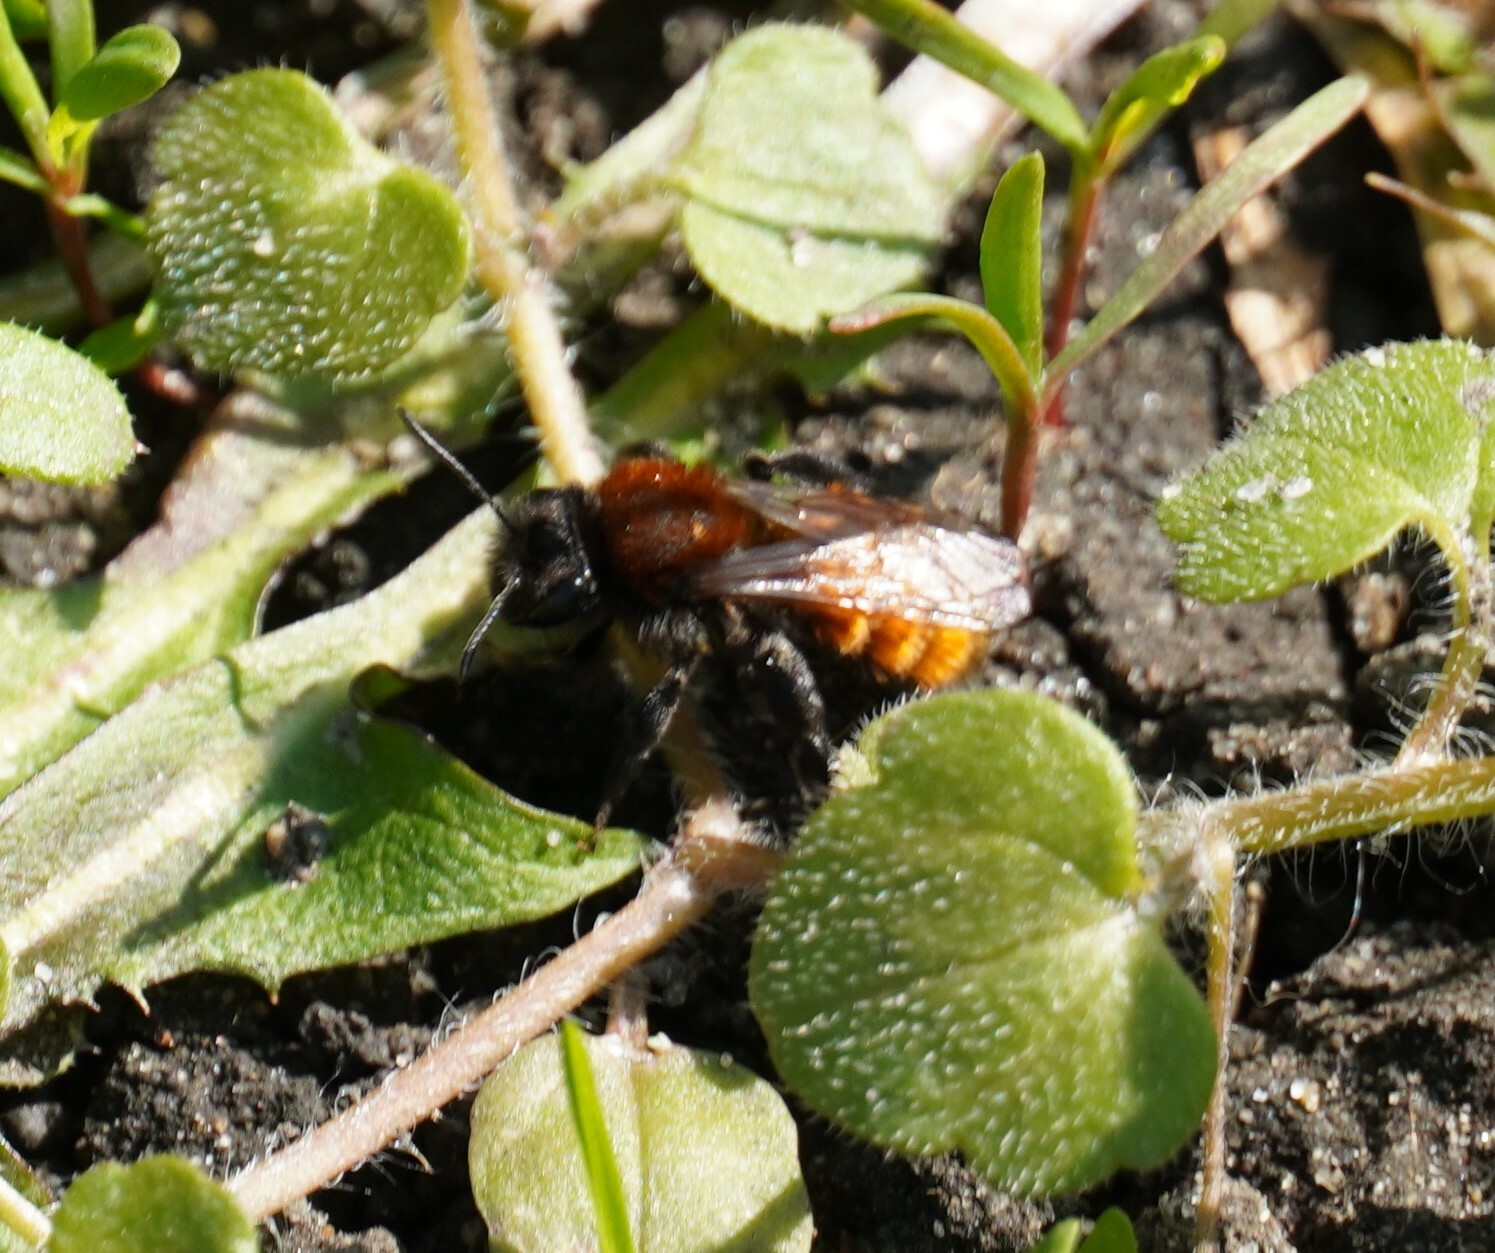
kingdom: Animalia
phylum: Arthropoda
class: Insecta
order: Hymenoptera
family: Andrenidae
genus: Andrena
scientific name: Andrena fulva
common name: Tawny mining bee
